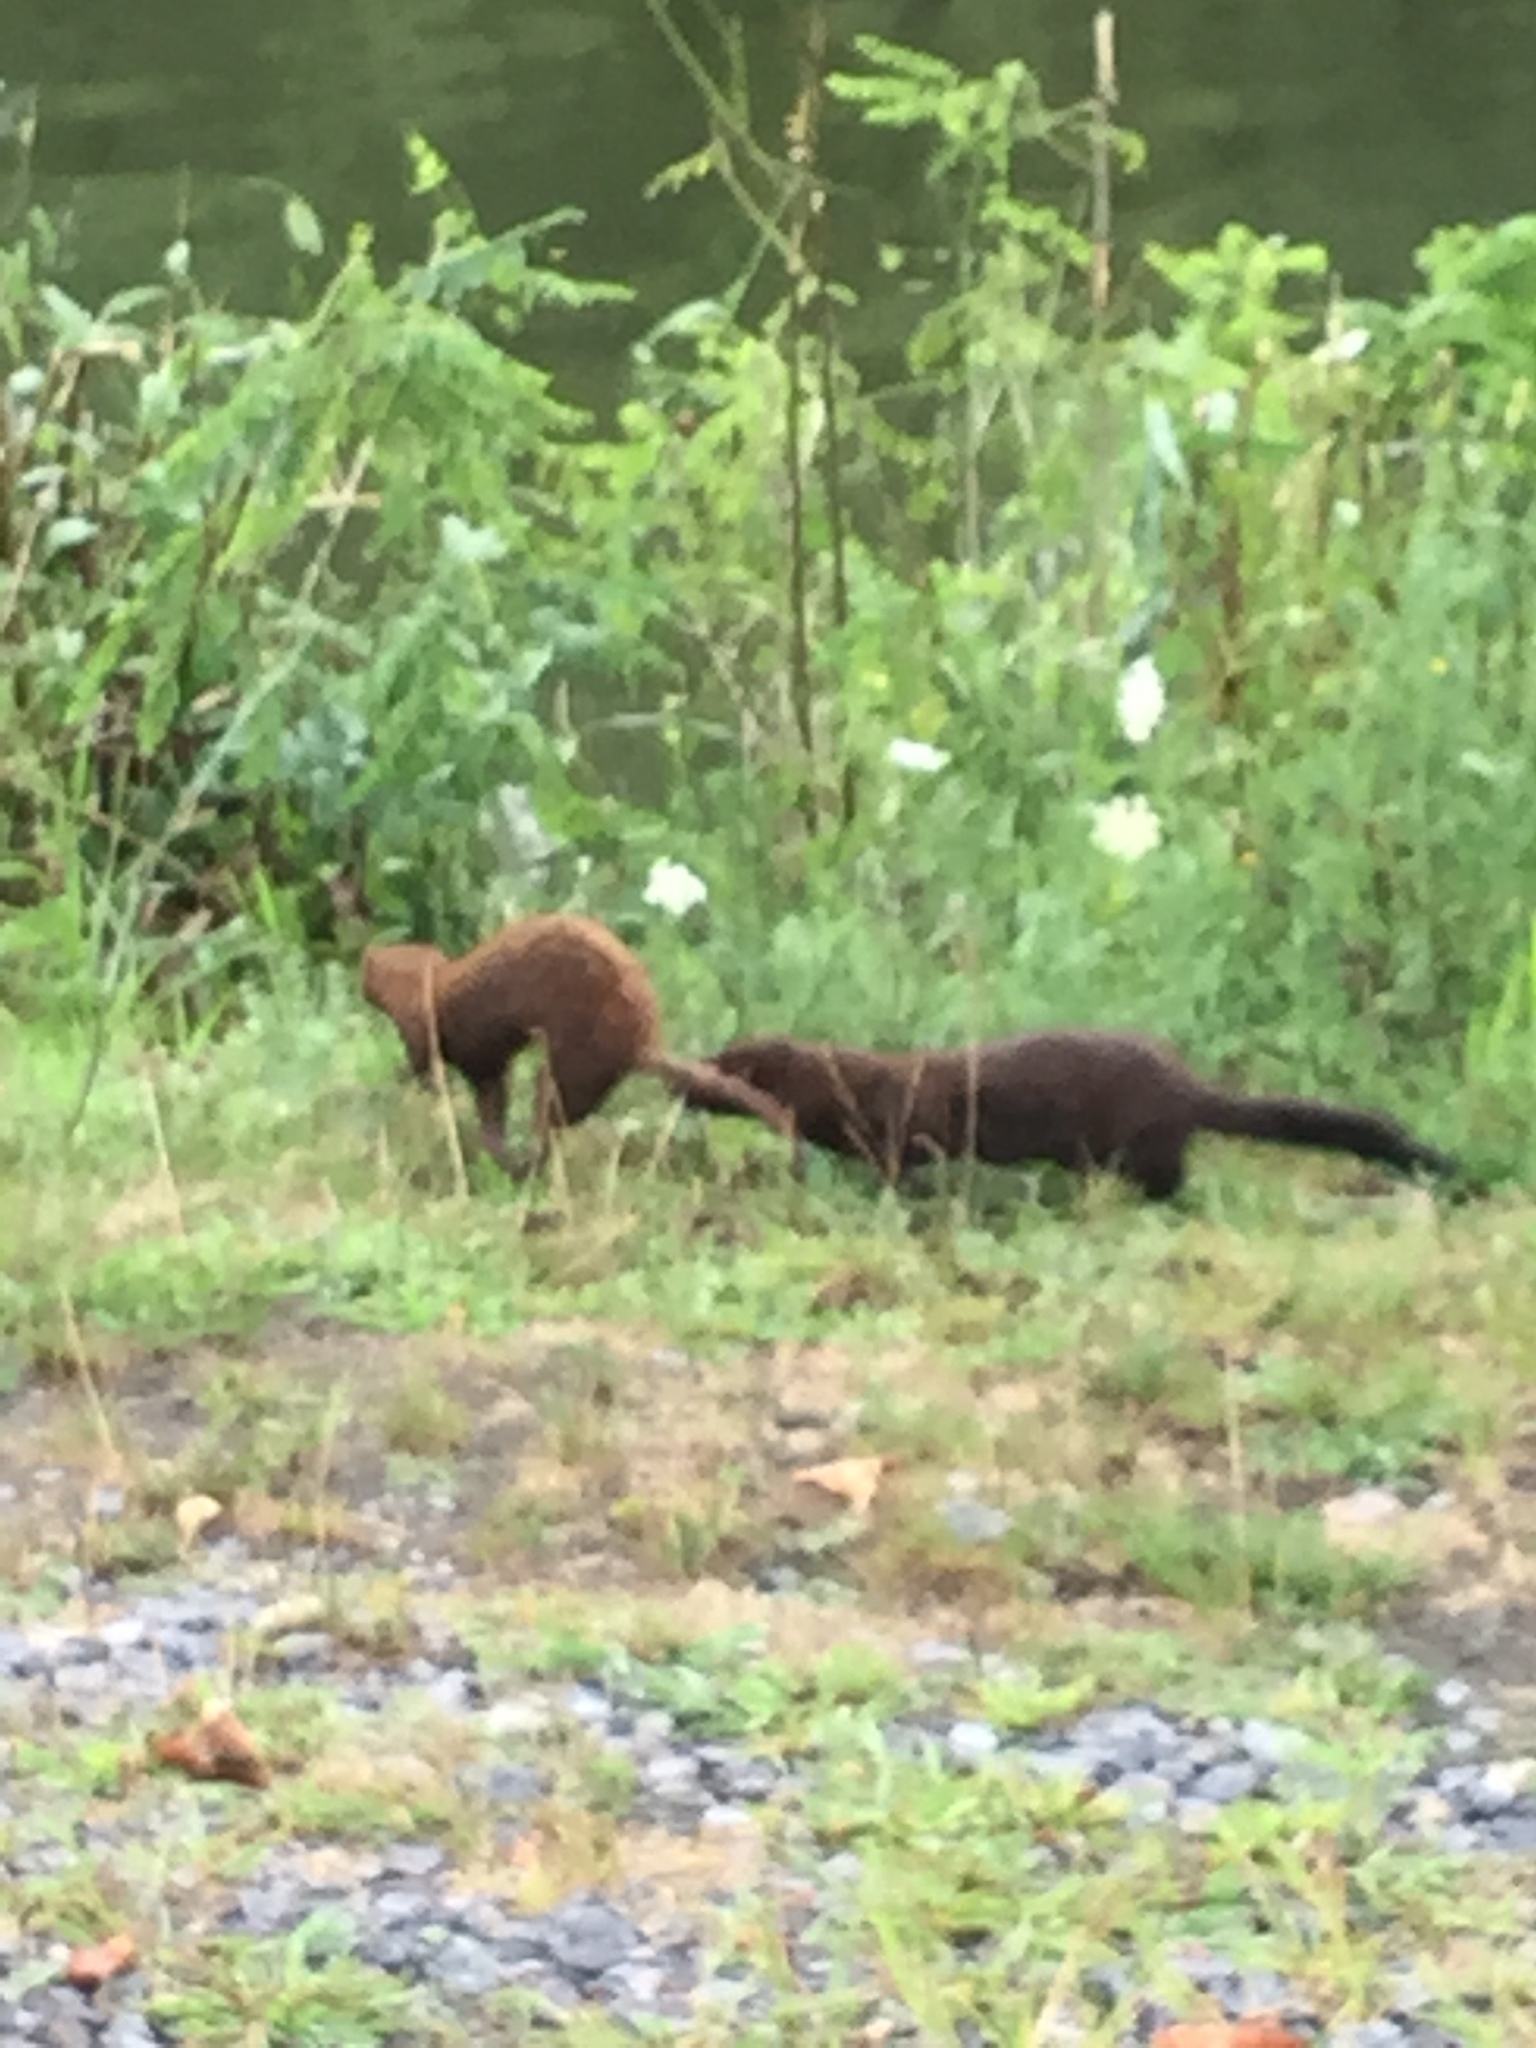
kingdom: Animalia
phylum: Chordata
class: Mammalia
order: Carnivora
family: Mustelidae
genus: Mustela
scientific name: Mustela
